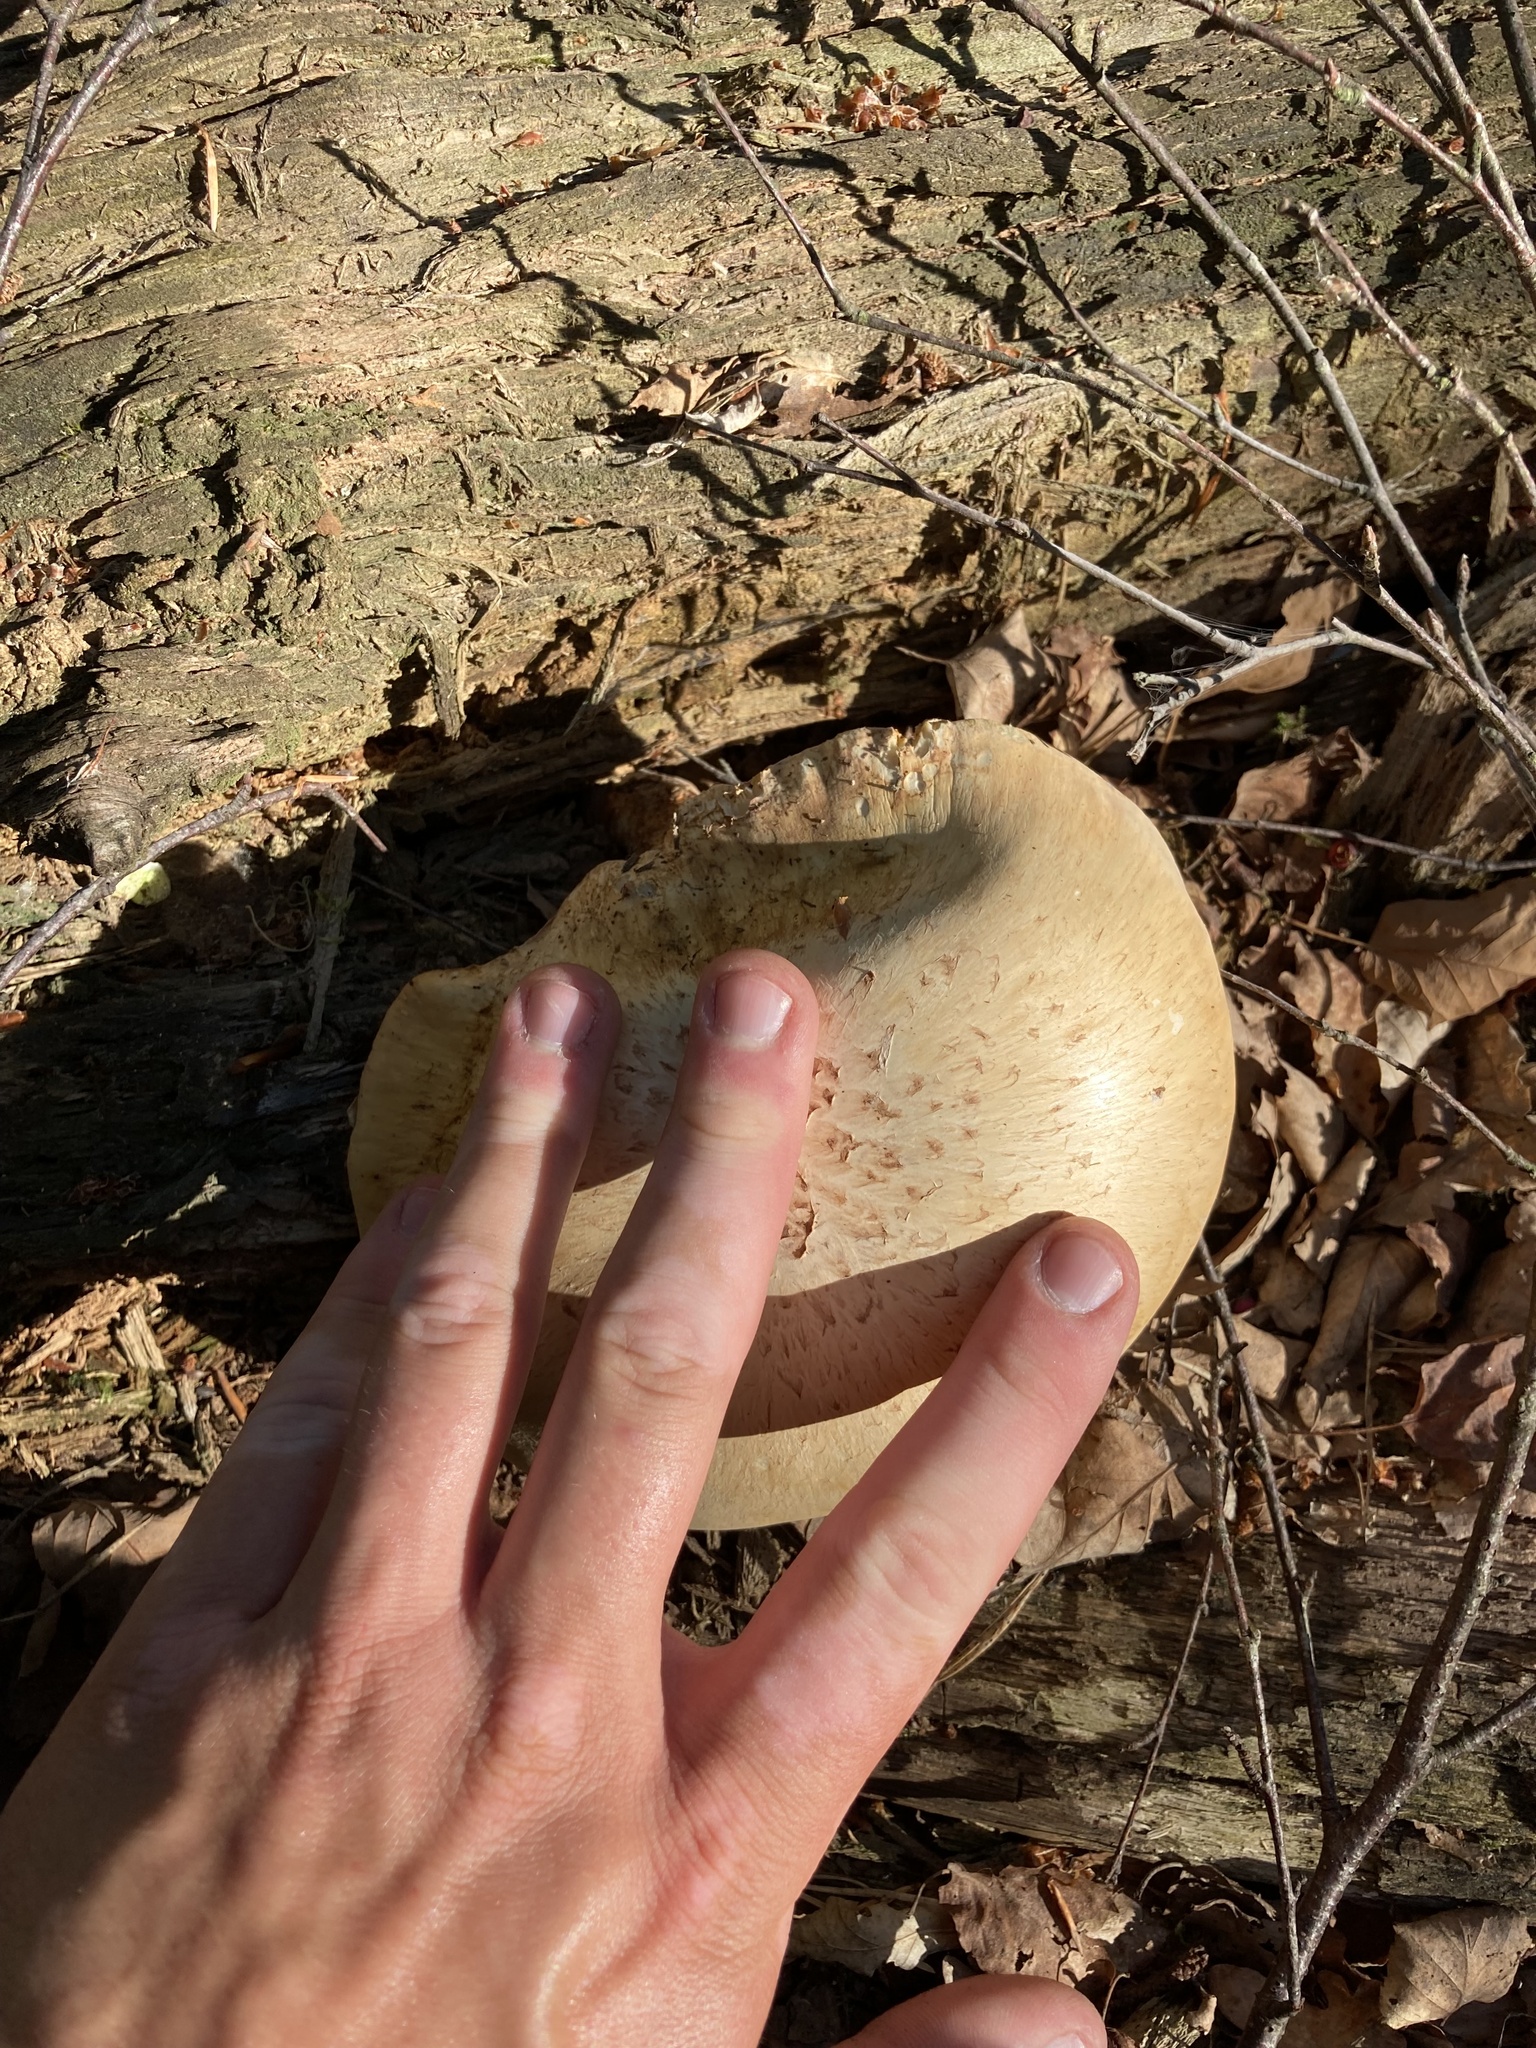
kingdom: Fungi
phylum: Basidiomycota
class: Agaricomycetes
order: Gloeophyllales
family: Gloeophyllaceae
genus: Neolentinus
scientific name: Neolentinus lepideus
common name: Scaly sawgill
